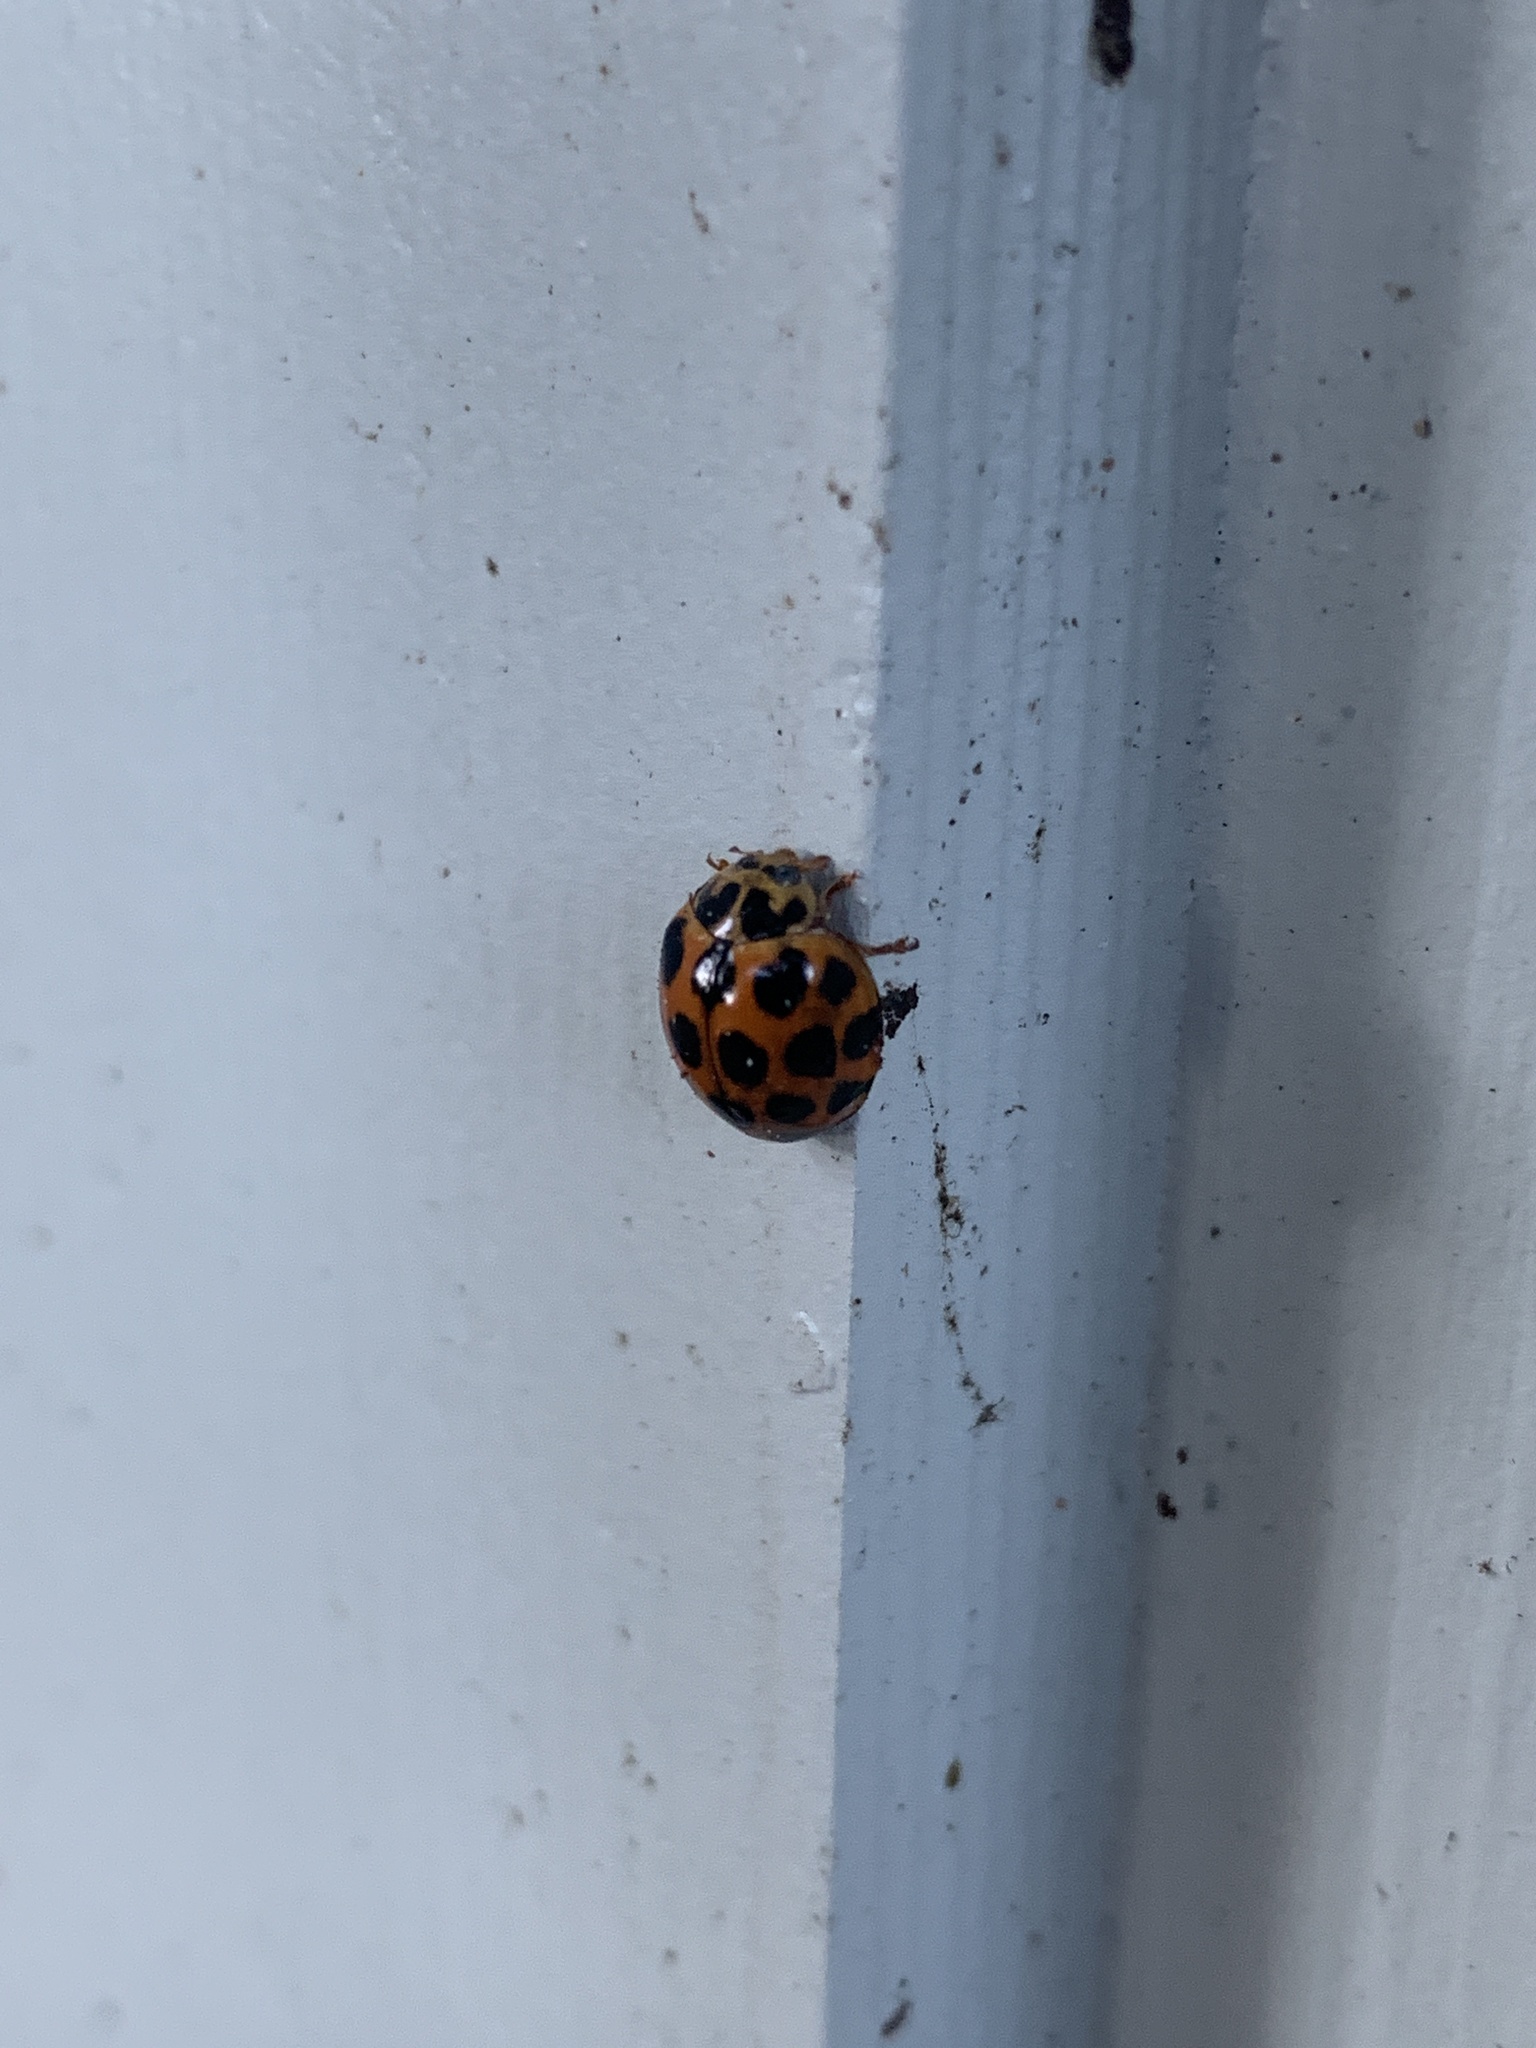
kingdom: Animalia
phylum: Arthropoda
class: Insecta
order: Coleoptera
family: Coccinellidae
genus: Harmonia
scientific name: Harmonia conformis
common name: Common spotted ladybird beetle
